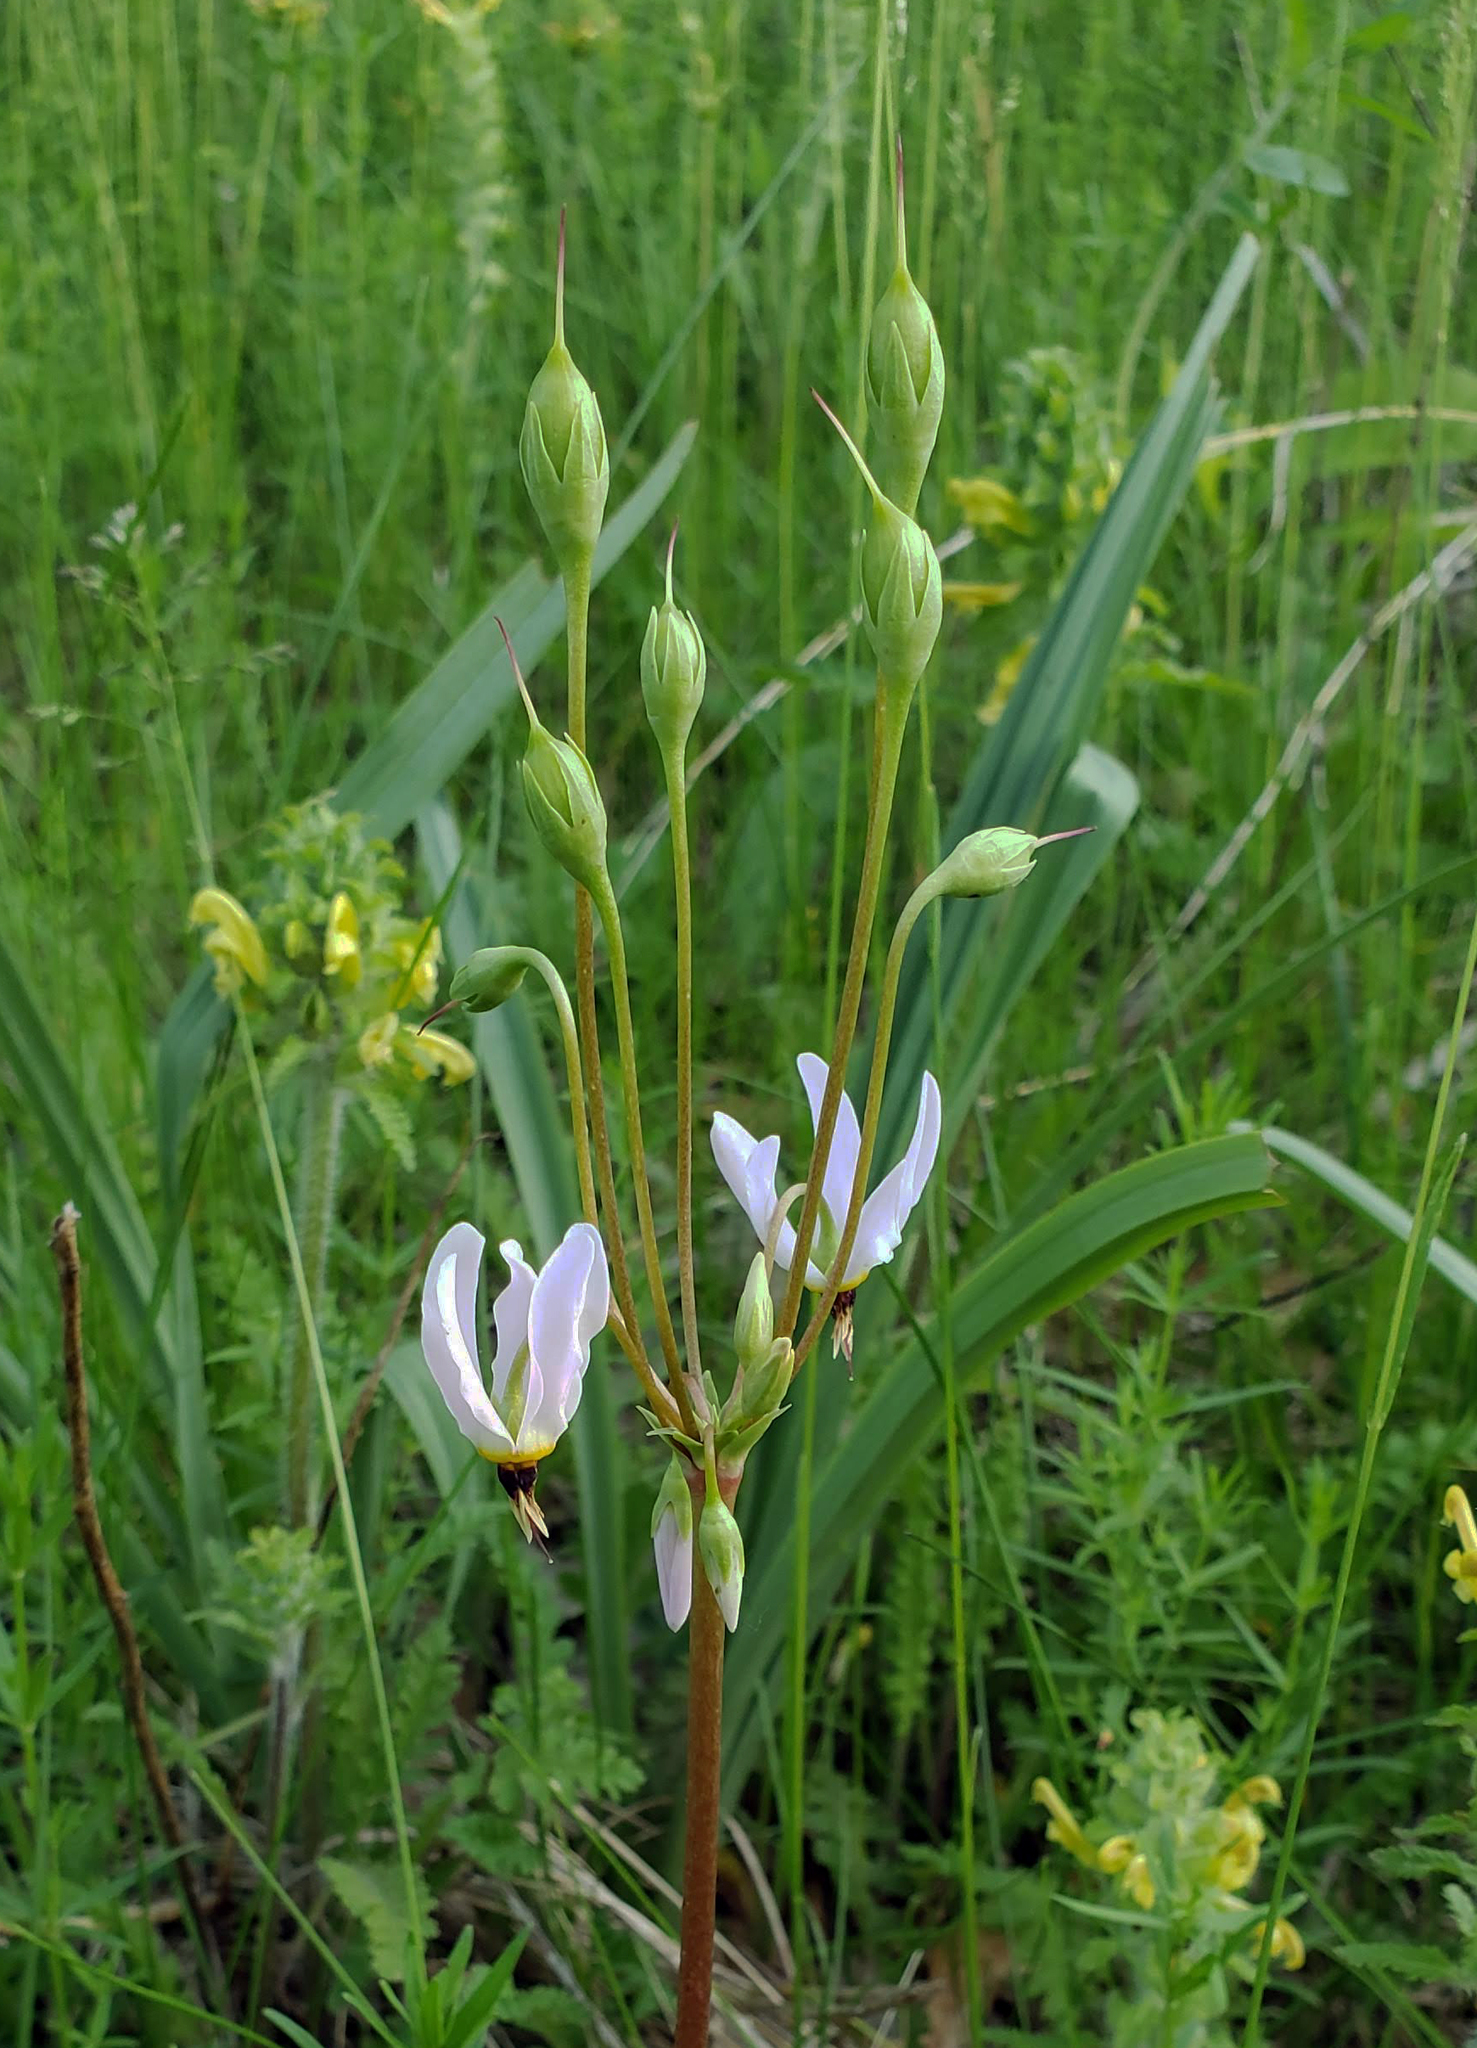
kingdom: Plantae
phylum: Tracheophyta
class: Magnoliopsida
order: Ericales
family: Primulaceae
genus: Dodecatheon
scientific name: Dodecatheon meadia
